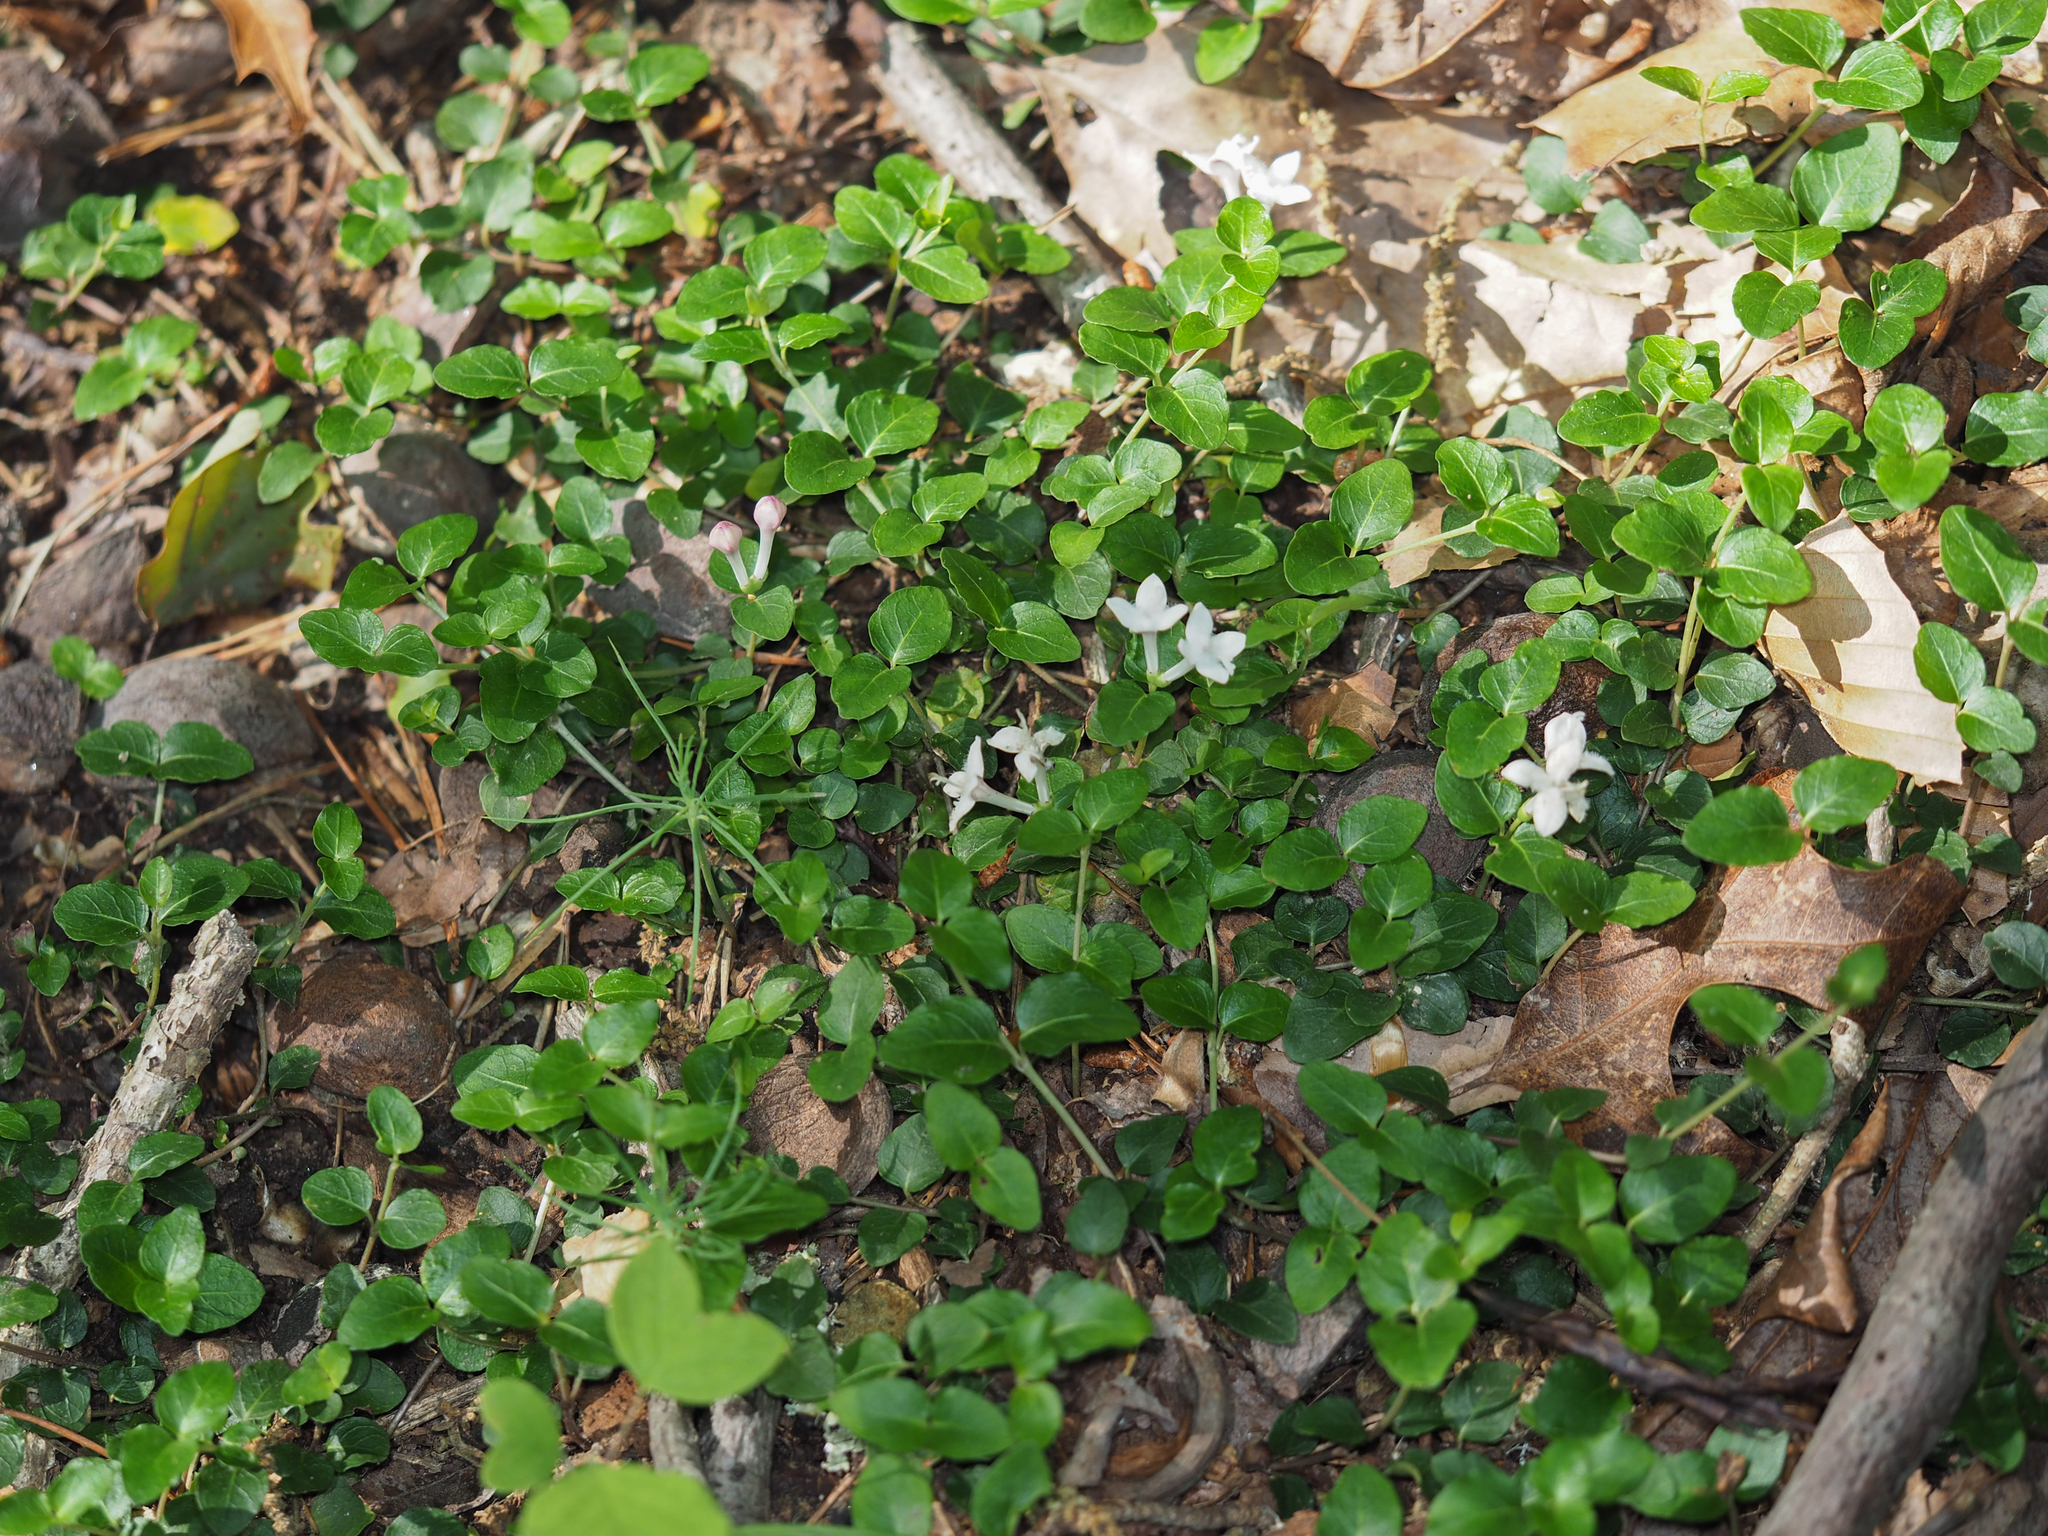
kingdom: Plantae
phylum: Tracheophyta
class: Magnoliopsida
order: Gentianales
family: Rubiaceae
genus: Mitchella
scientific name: Mitchella repens
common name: Partridge-berry
